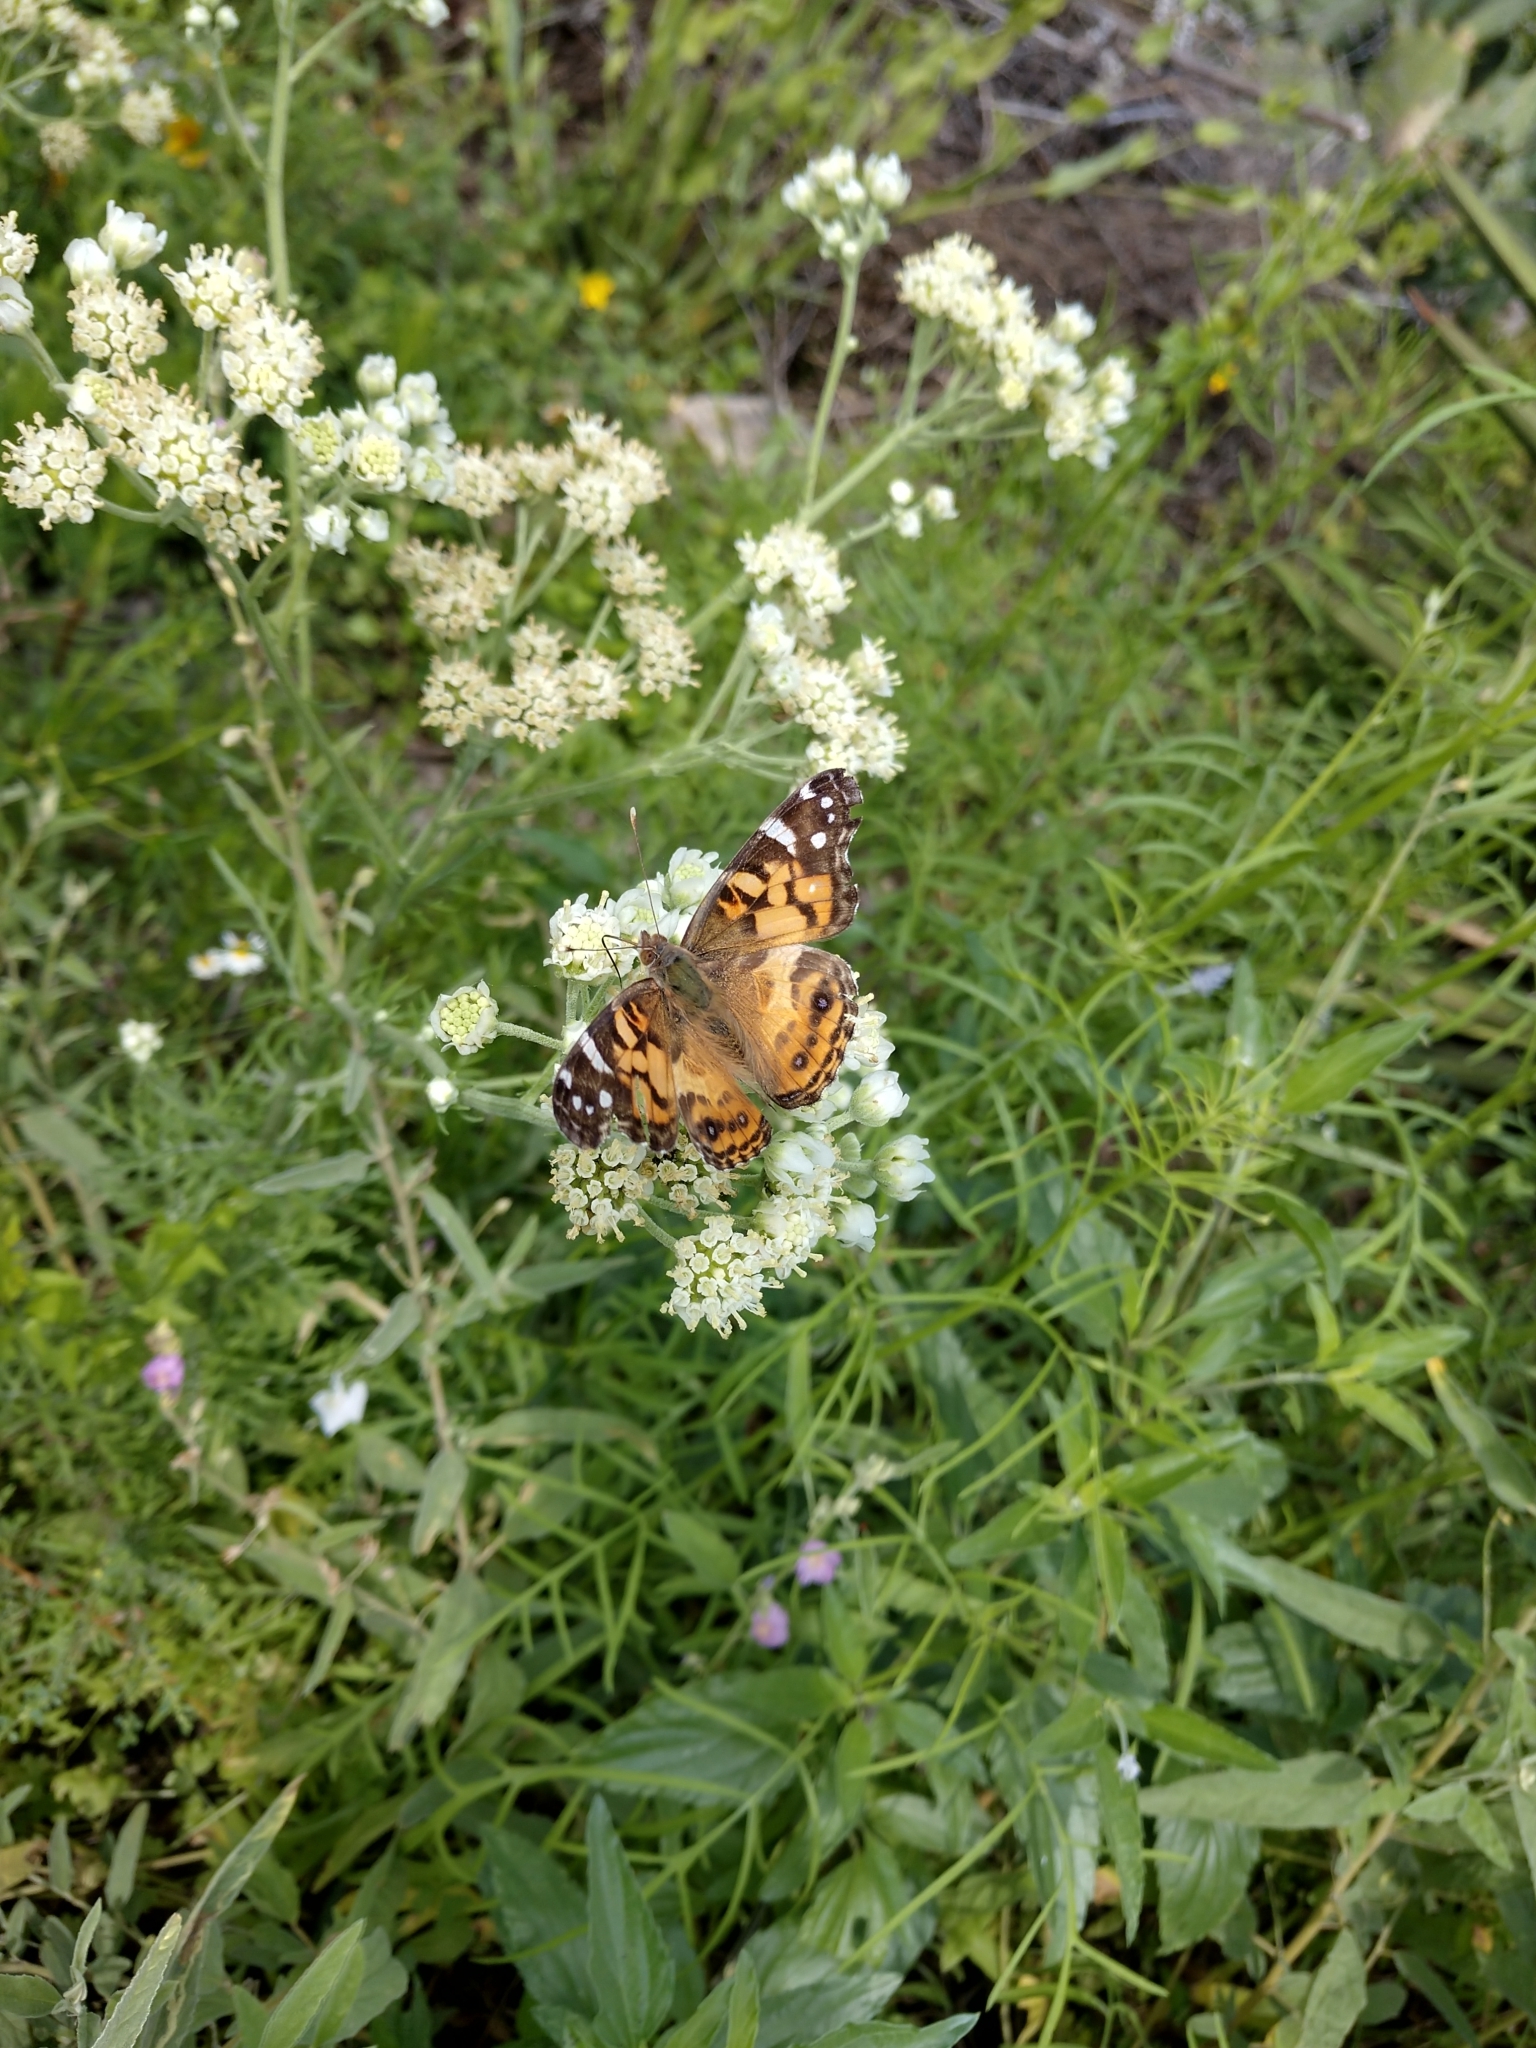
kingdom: Animalia
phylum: Arthropoda
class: Insecta
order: Lepidoptera
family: Nymphalidae
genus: Vanessa
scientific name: Vanessa virginiensis
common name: American lady
